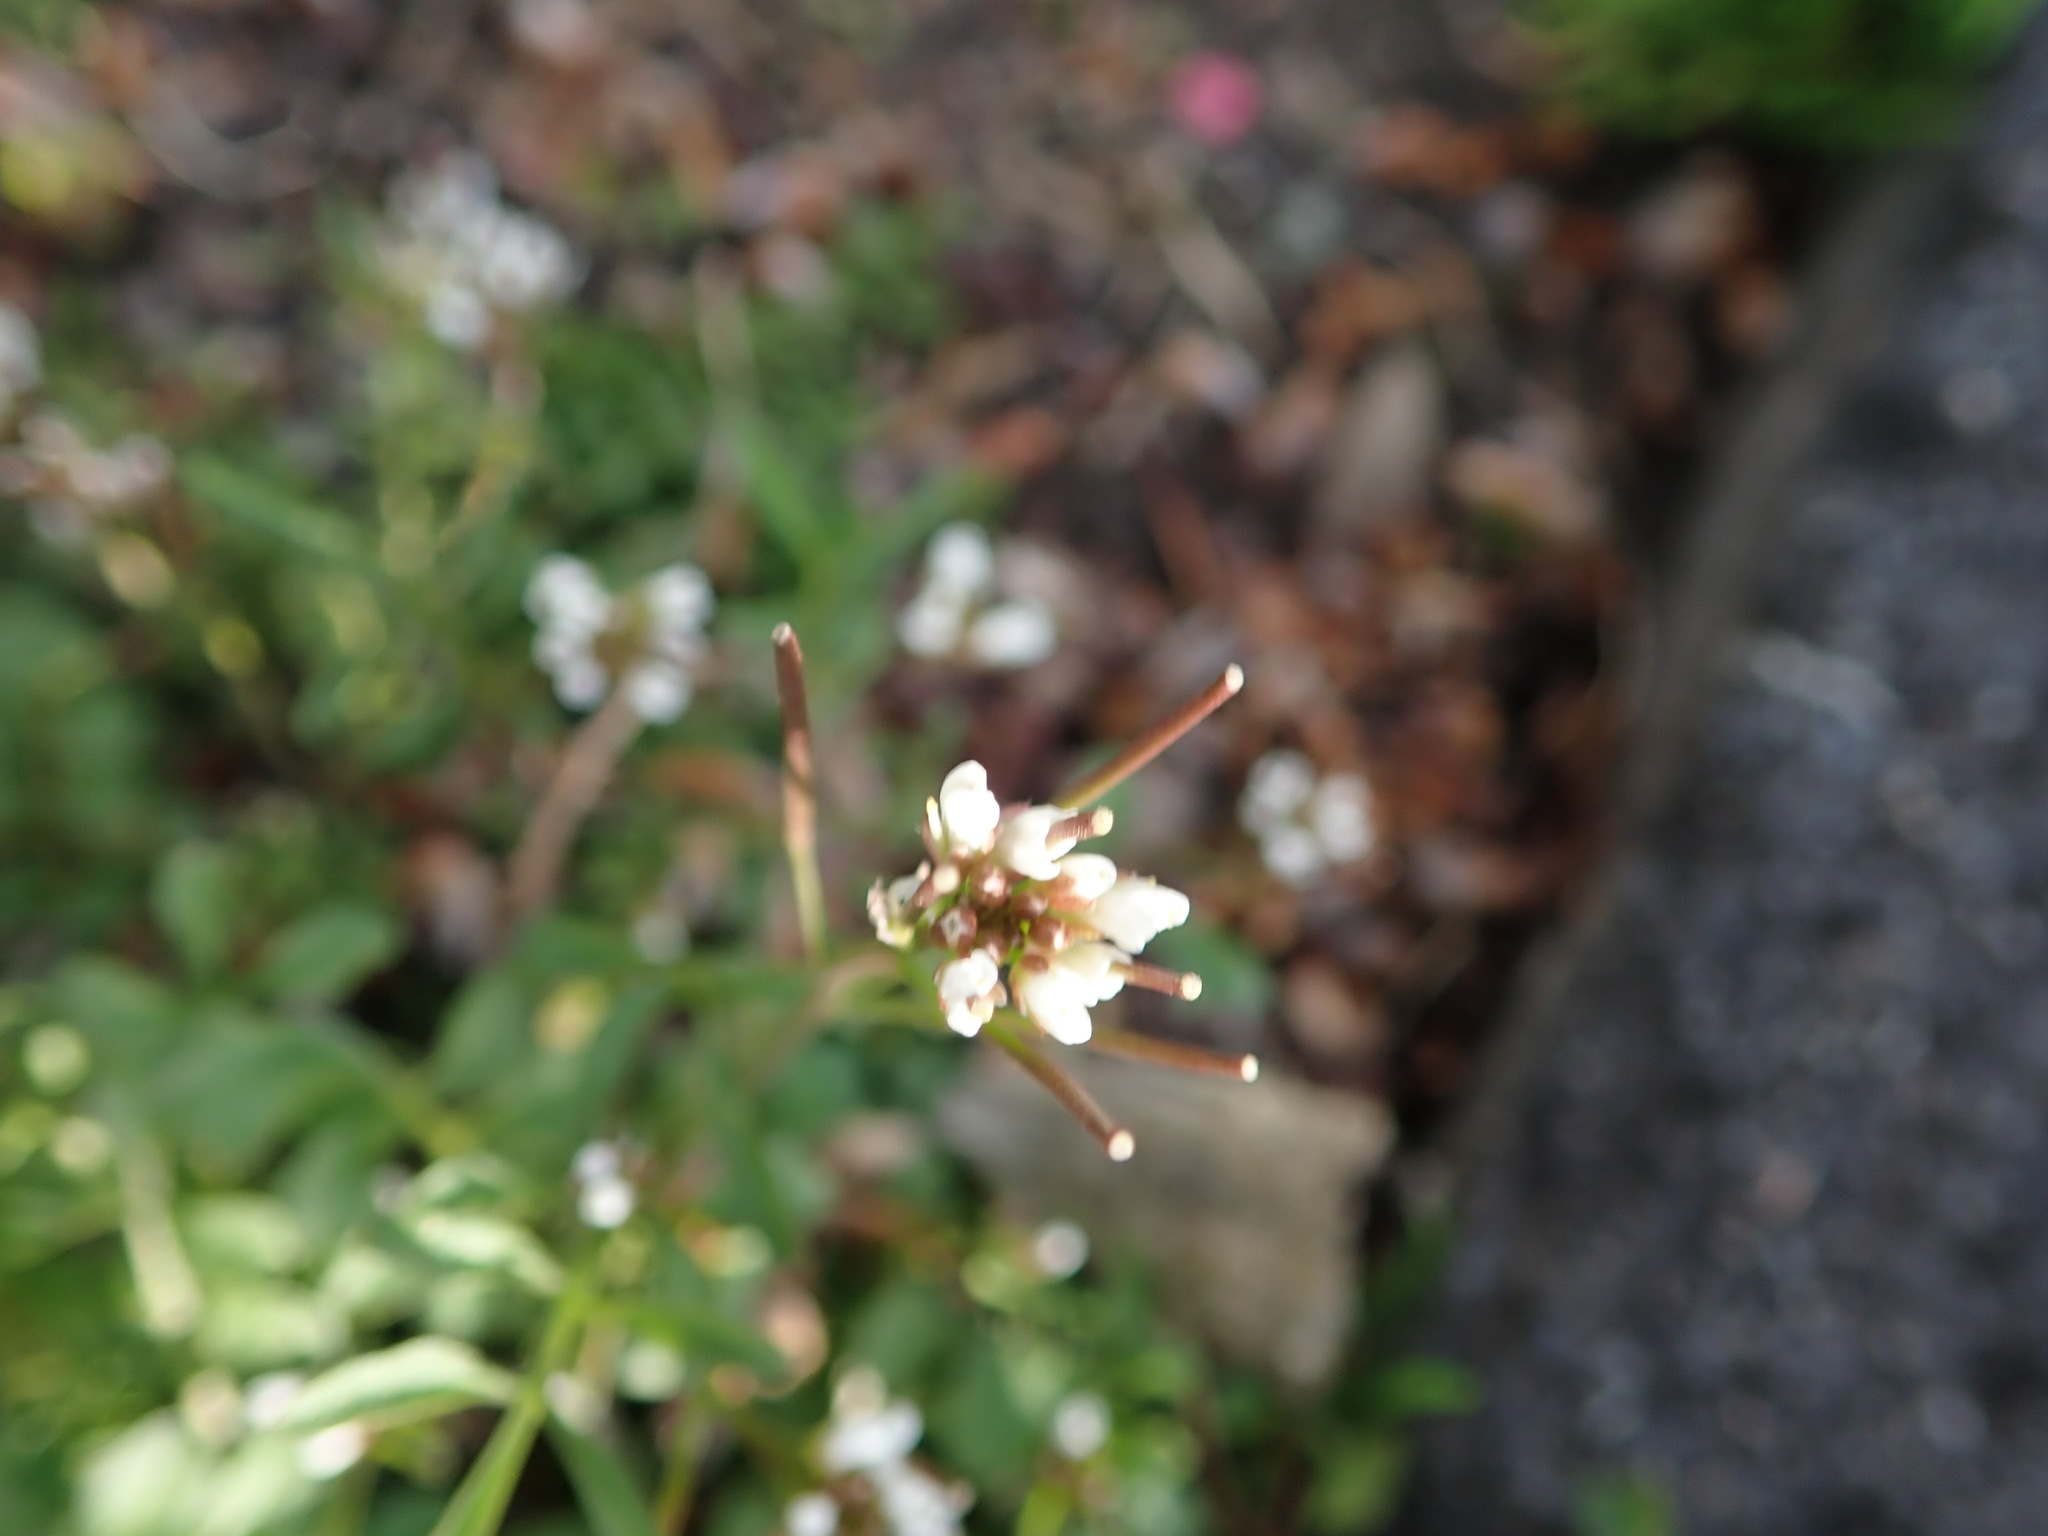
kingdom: Plantae
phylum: Tracheophyta
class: Magnoliopsida
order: Brassicales
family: Brassicaceae
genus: Cardamine
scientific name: Cardamine hirsuta
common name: Hairy bittercress
